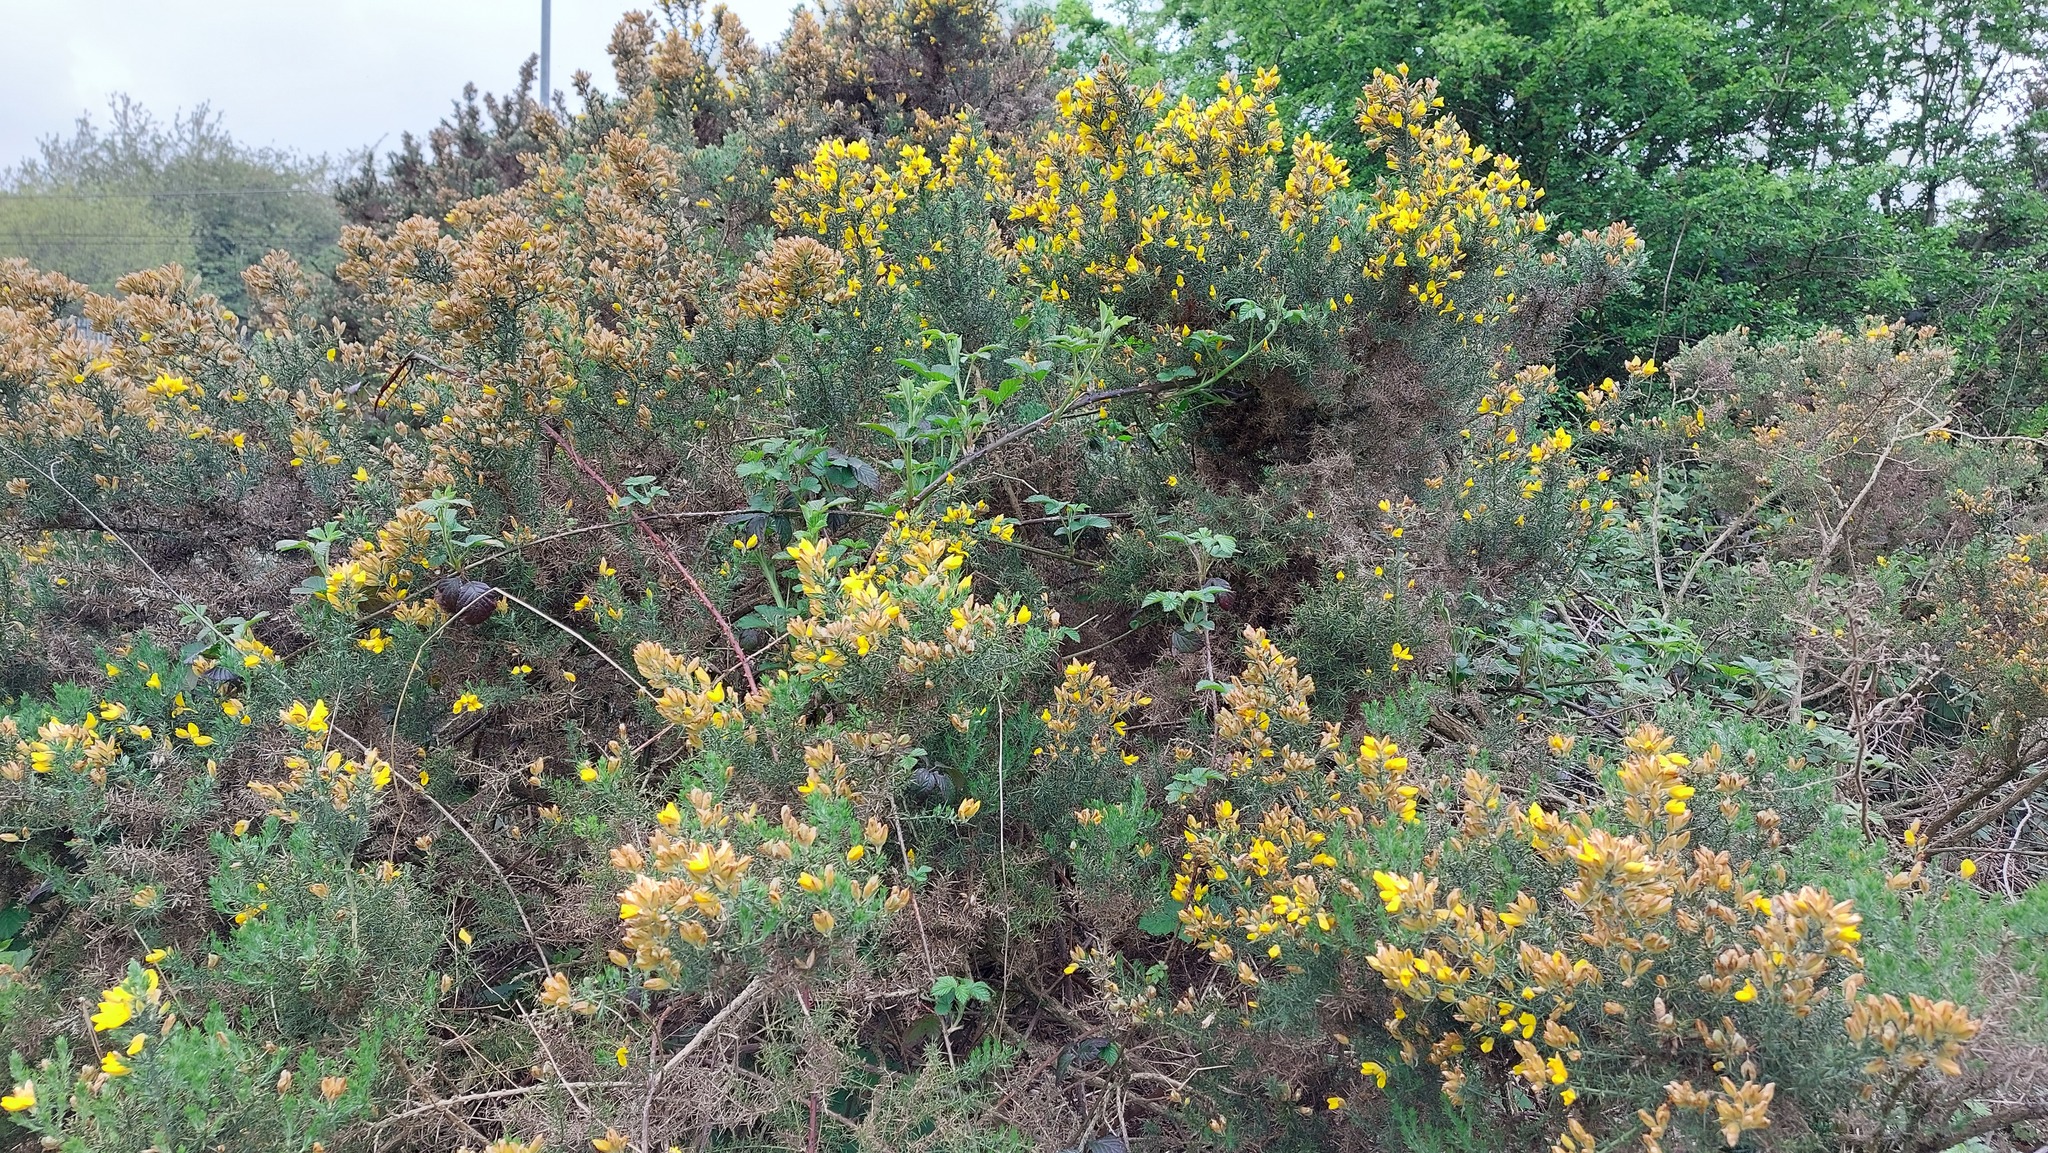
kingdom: Plantae
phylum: Tracheophyta
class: Magnoliopsida
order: Fabales
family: Fabaceae
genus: Ulex
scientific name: Ulex europaeus
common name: Common gorse
